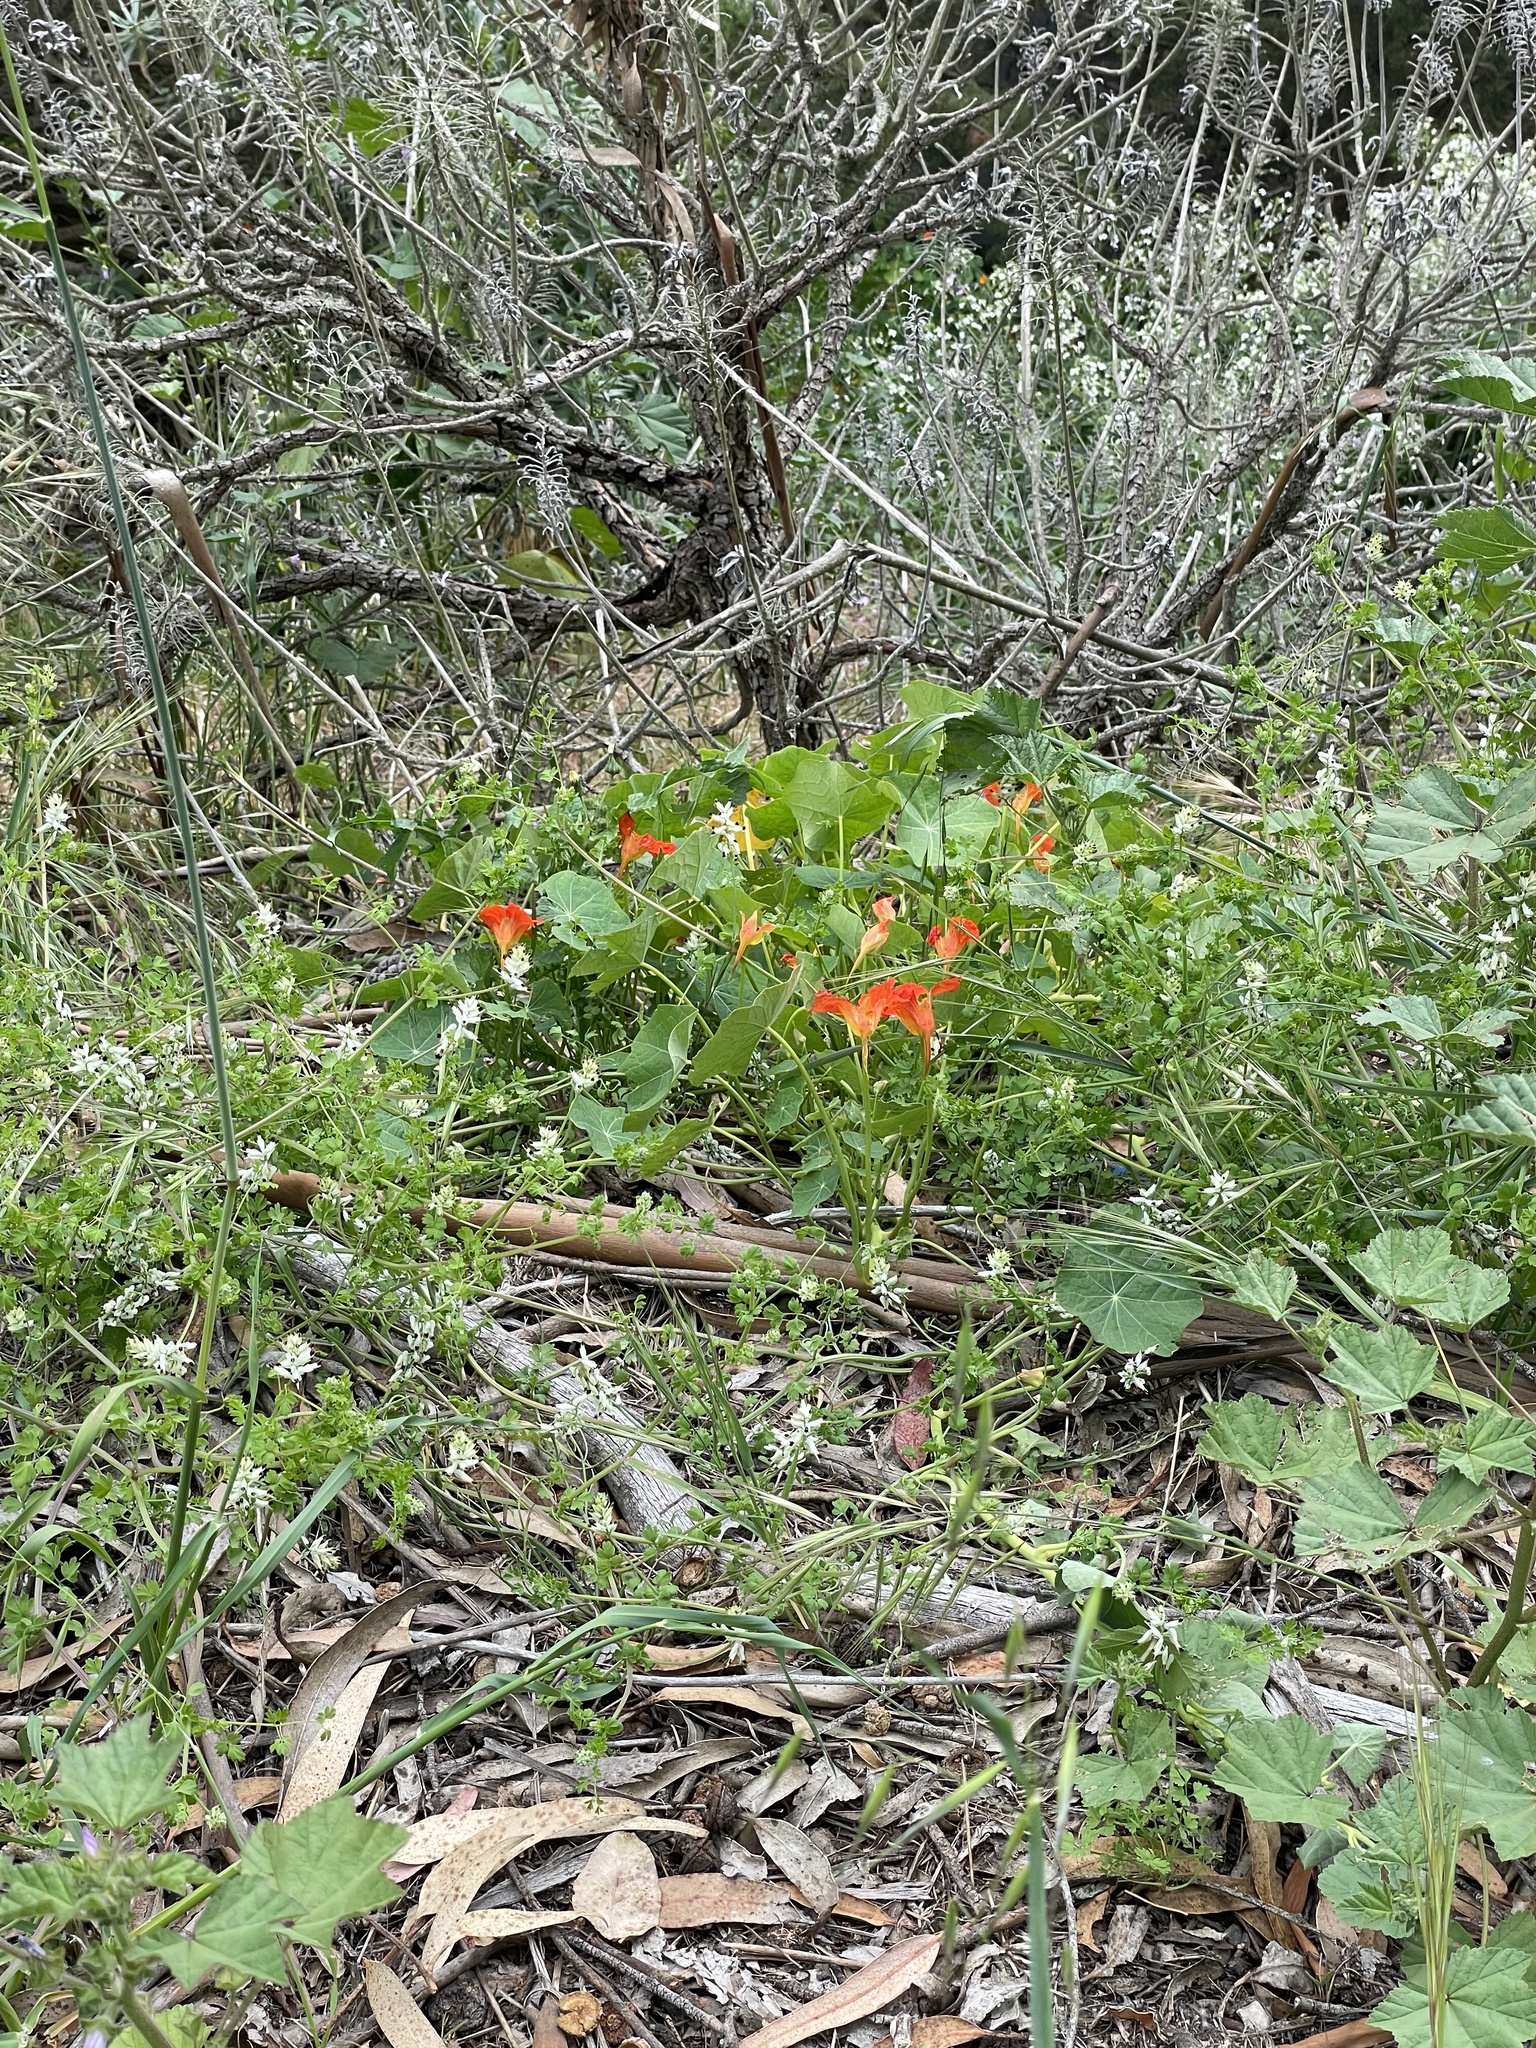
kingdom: Plantae
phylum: Tracheophyta
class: Magnoliopsida
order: Brassicales
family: Tropaeolaceae
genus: Tropaeolum
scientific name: Tropaeolum majus
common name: Nasturtium
